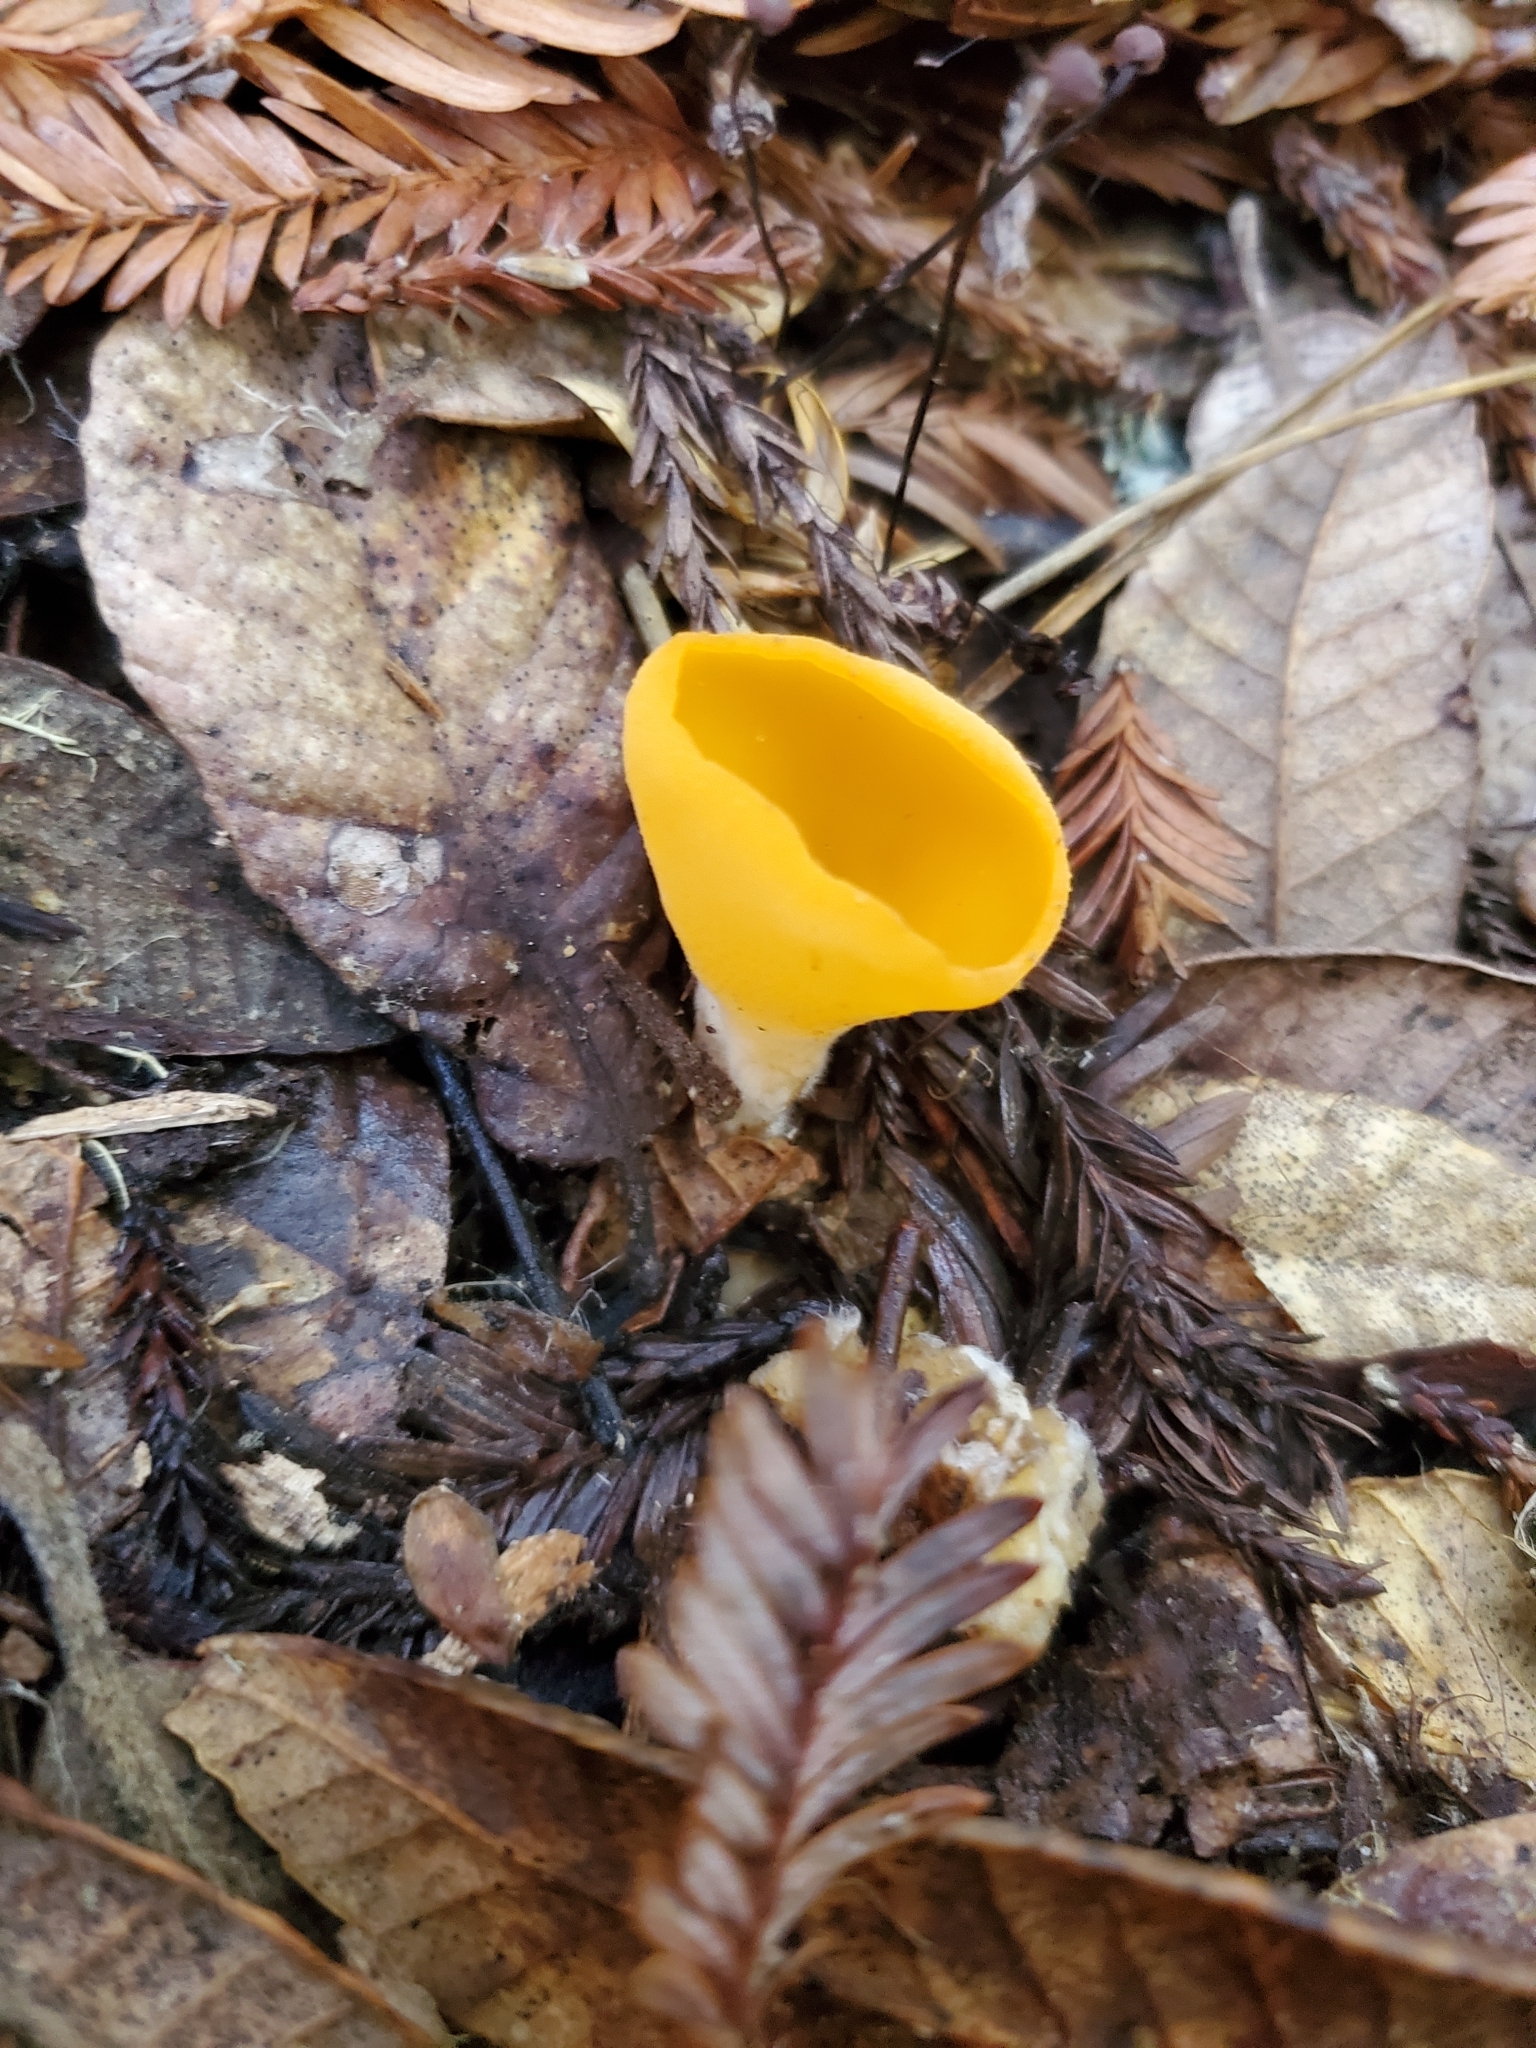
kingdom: Fungi
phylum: Ascomycota
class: Pezizomycetes
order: Pezizales
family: Pyronemataceae
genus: Sowerbyella
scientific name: Sowerbyella rhenana
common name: Stalked orange peel fungus
